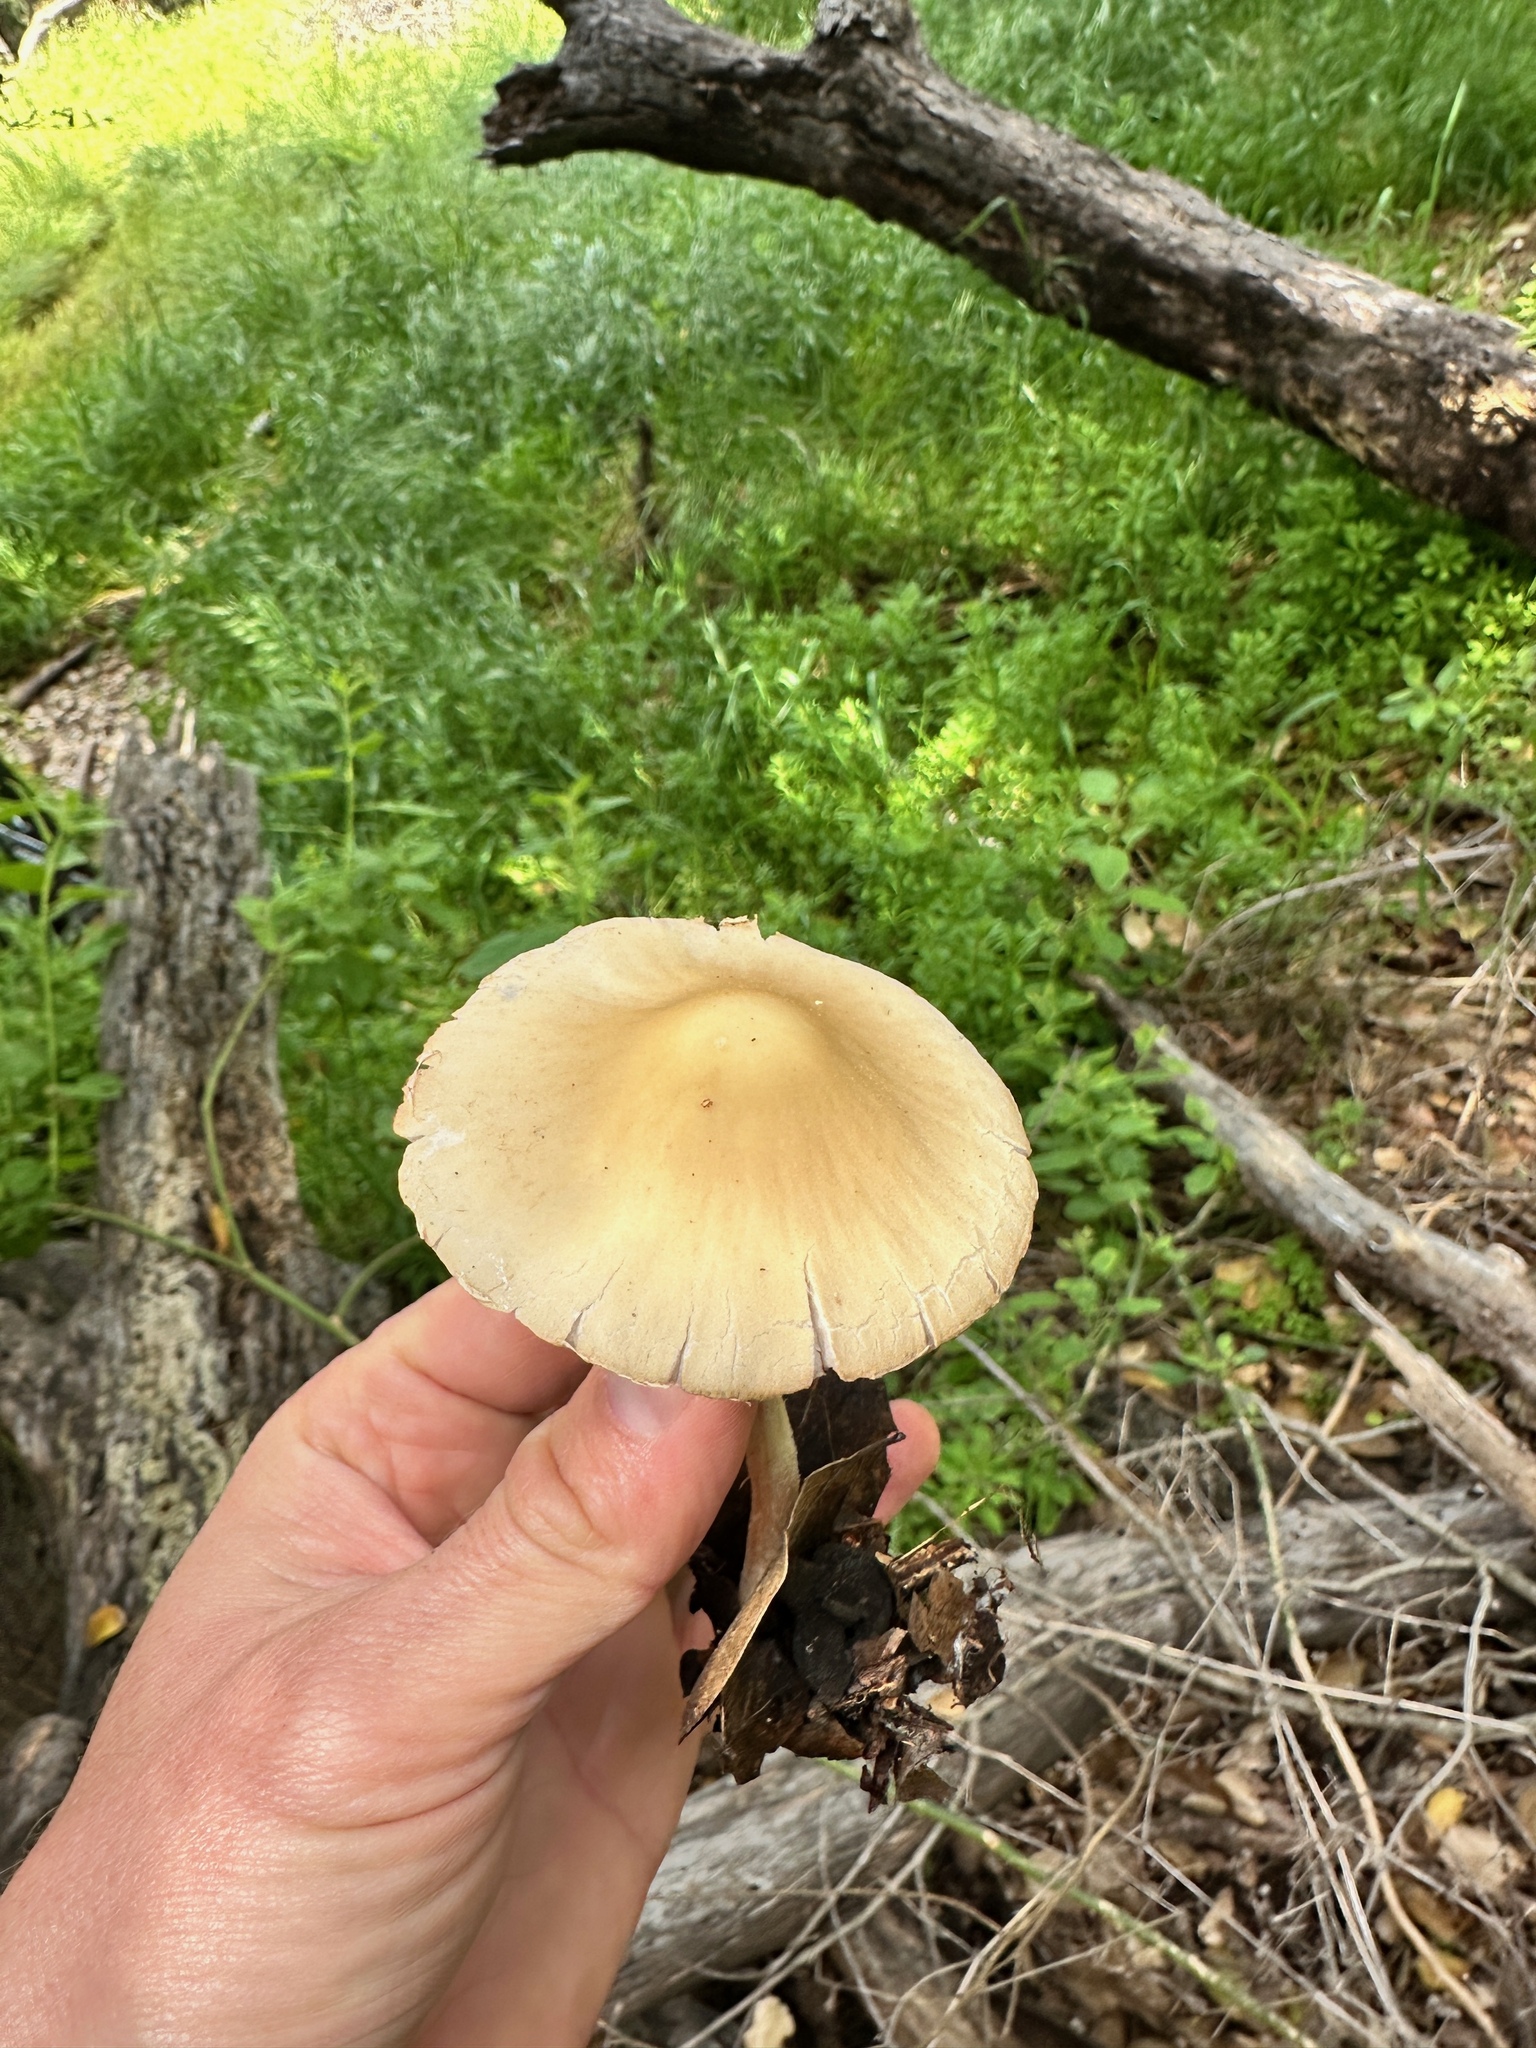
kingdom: Fungi
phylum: Basidiomycota
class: Agaricomycetes
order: Agaricales
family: Psathyrellaceae
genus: Candolleomyces
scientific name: Candolleomyces candolleanus
